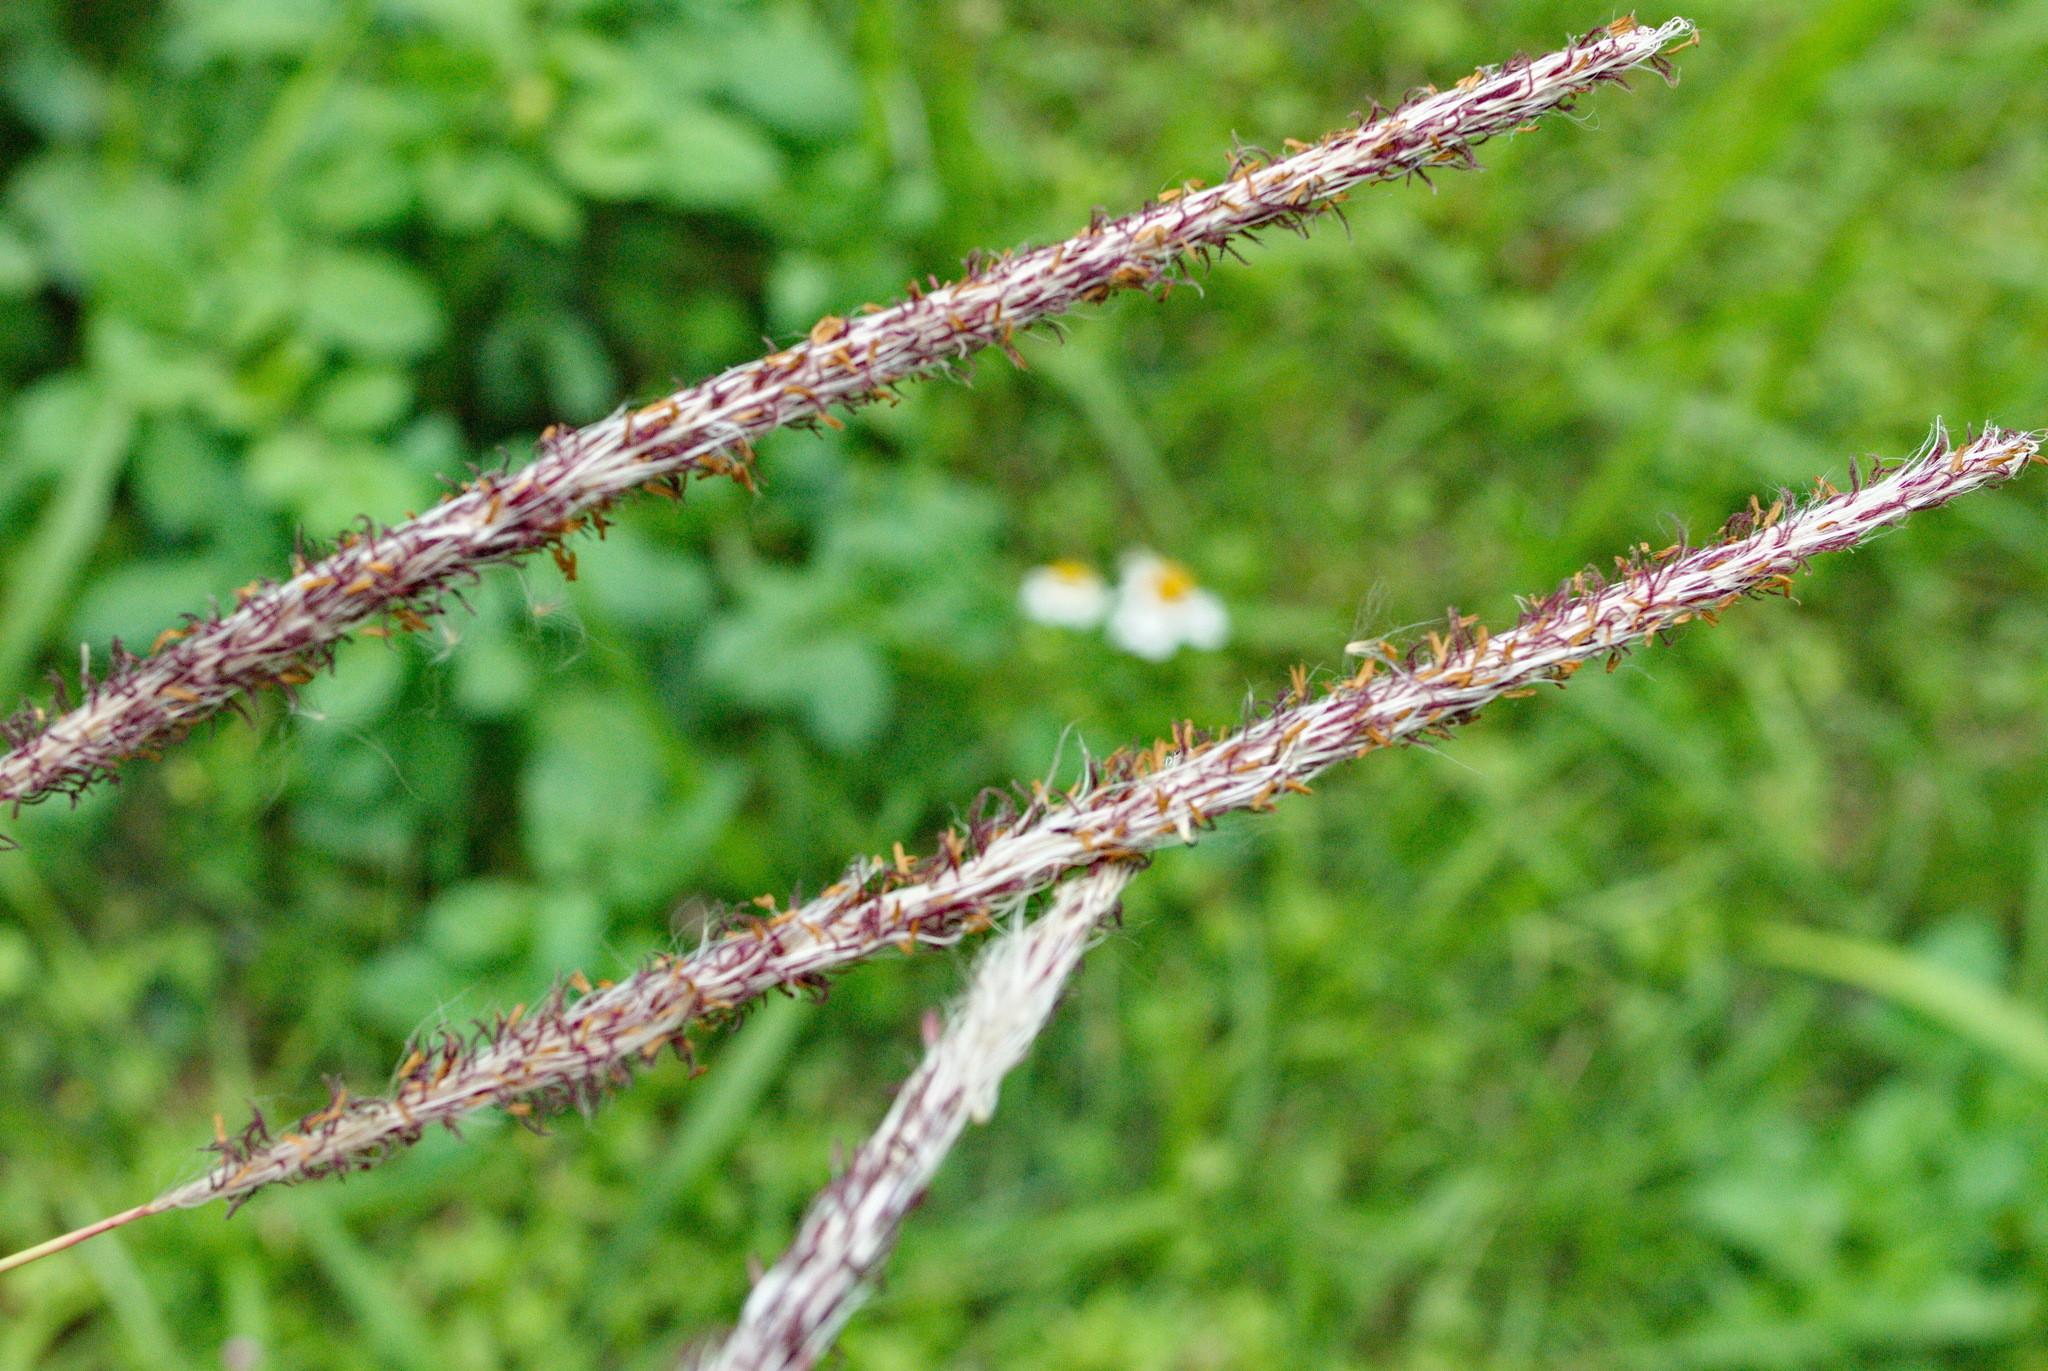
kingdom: Plantae
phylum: Tracheophyta
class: Liliopsida
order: Poales
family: Poaceae
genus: Imperata
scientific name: Imperata cylindrica
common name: Cogongrass
